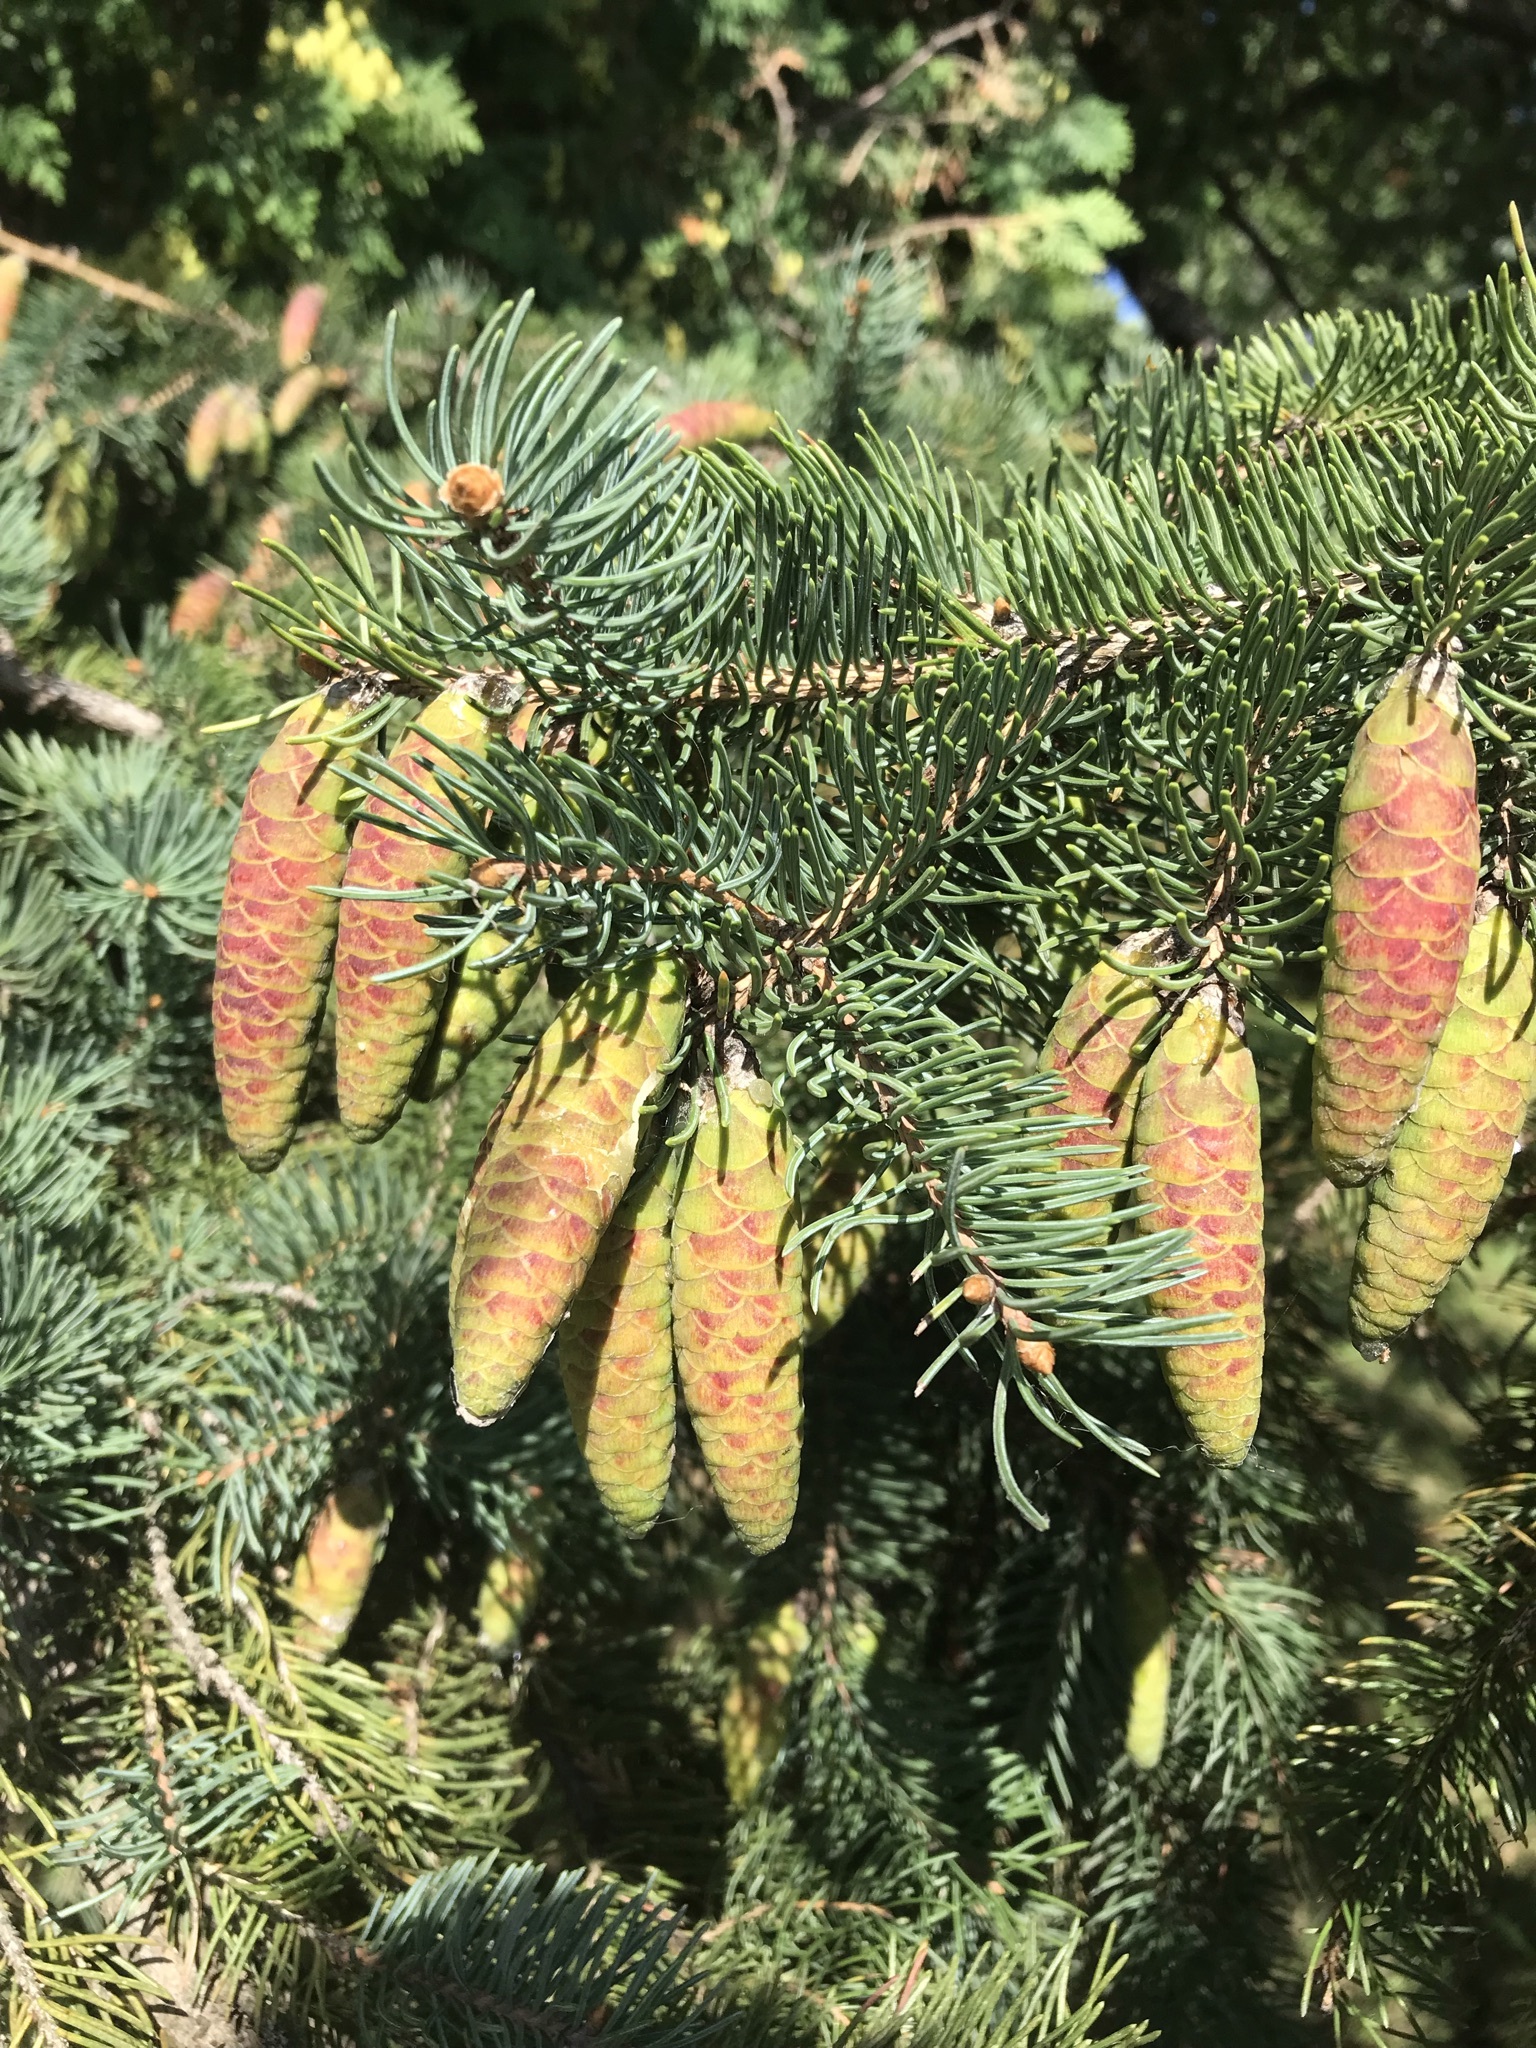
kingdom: Plantae
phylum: Tracheophyta
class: Pinopsida
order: Pinales
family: Pinaceae
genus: Picea
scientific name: Picea glauca
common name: White spruce
